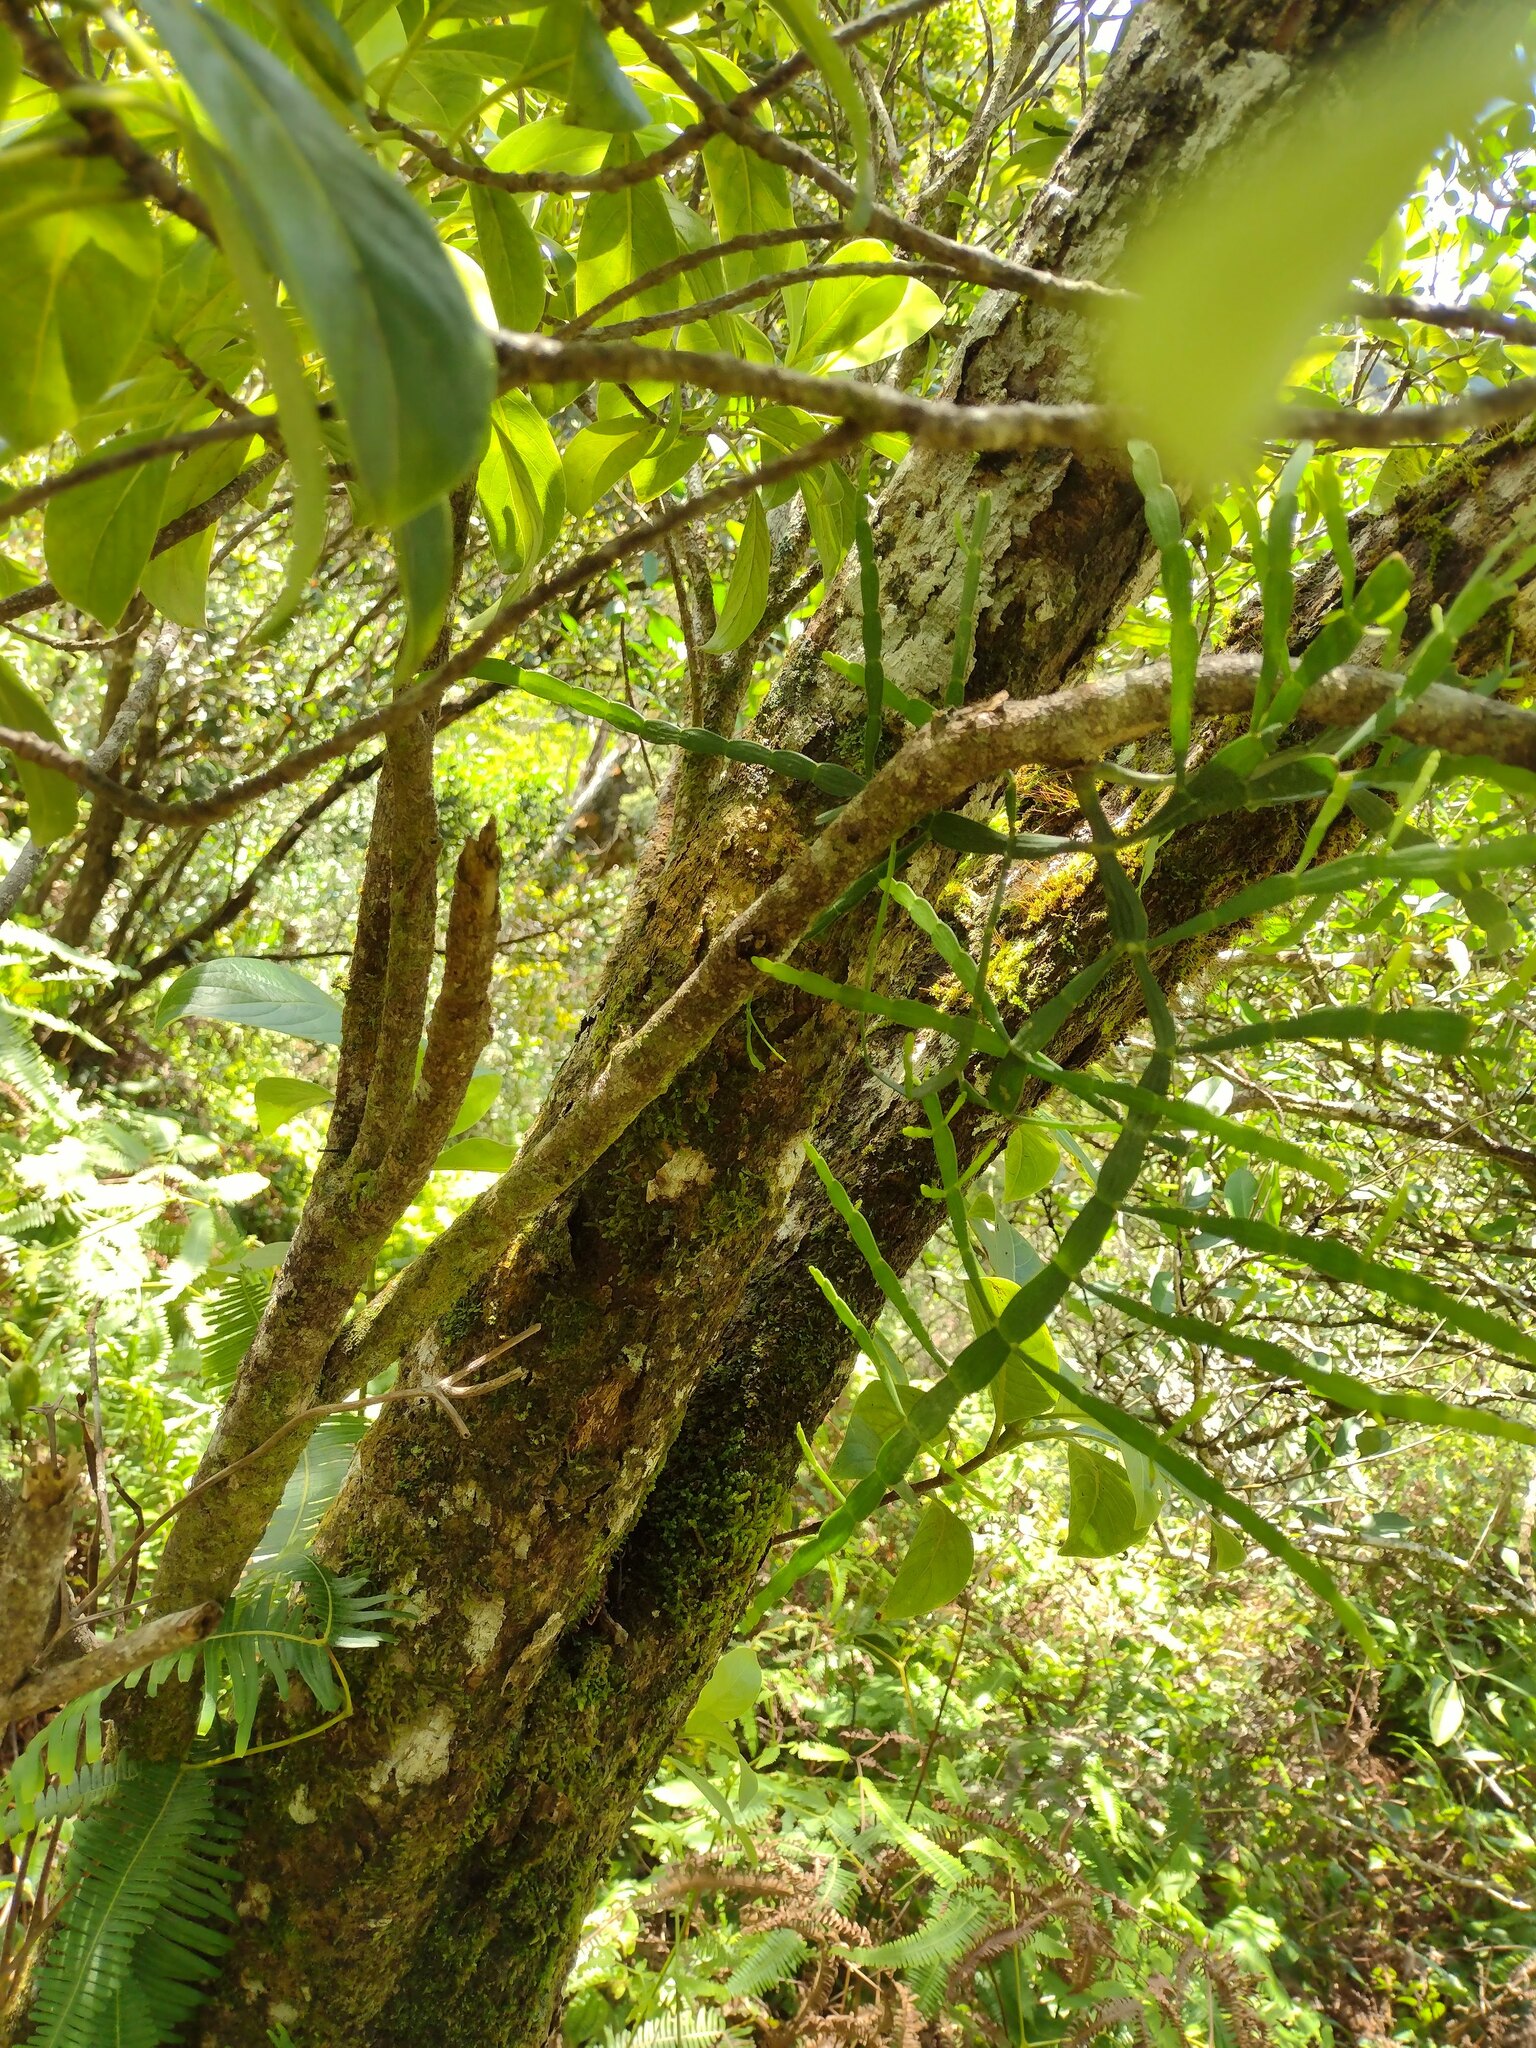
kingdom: Plantae
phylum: Tracheophyta
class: Magnoliopsida
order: Santalales
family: Viscaceae
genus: Korthalsella
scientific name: Korthalsella complanata
